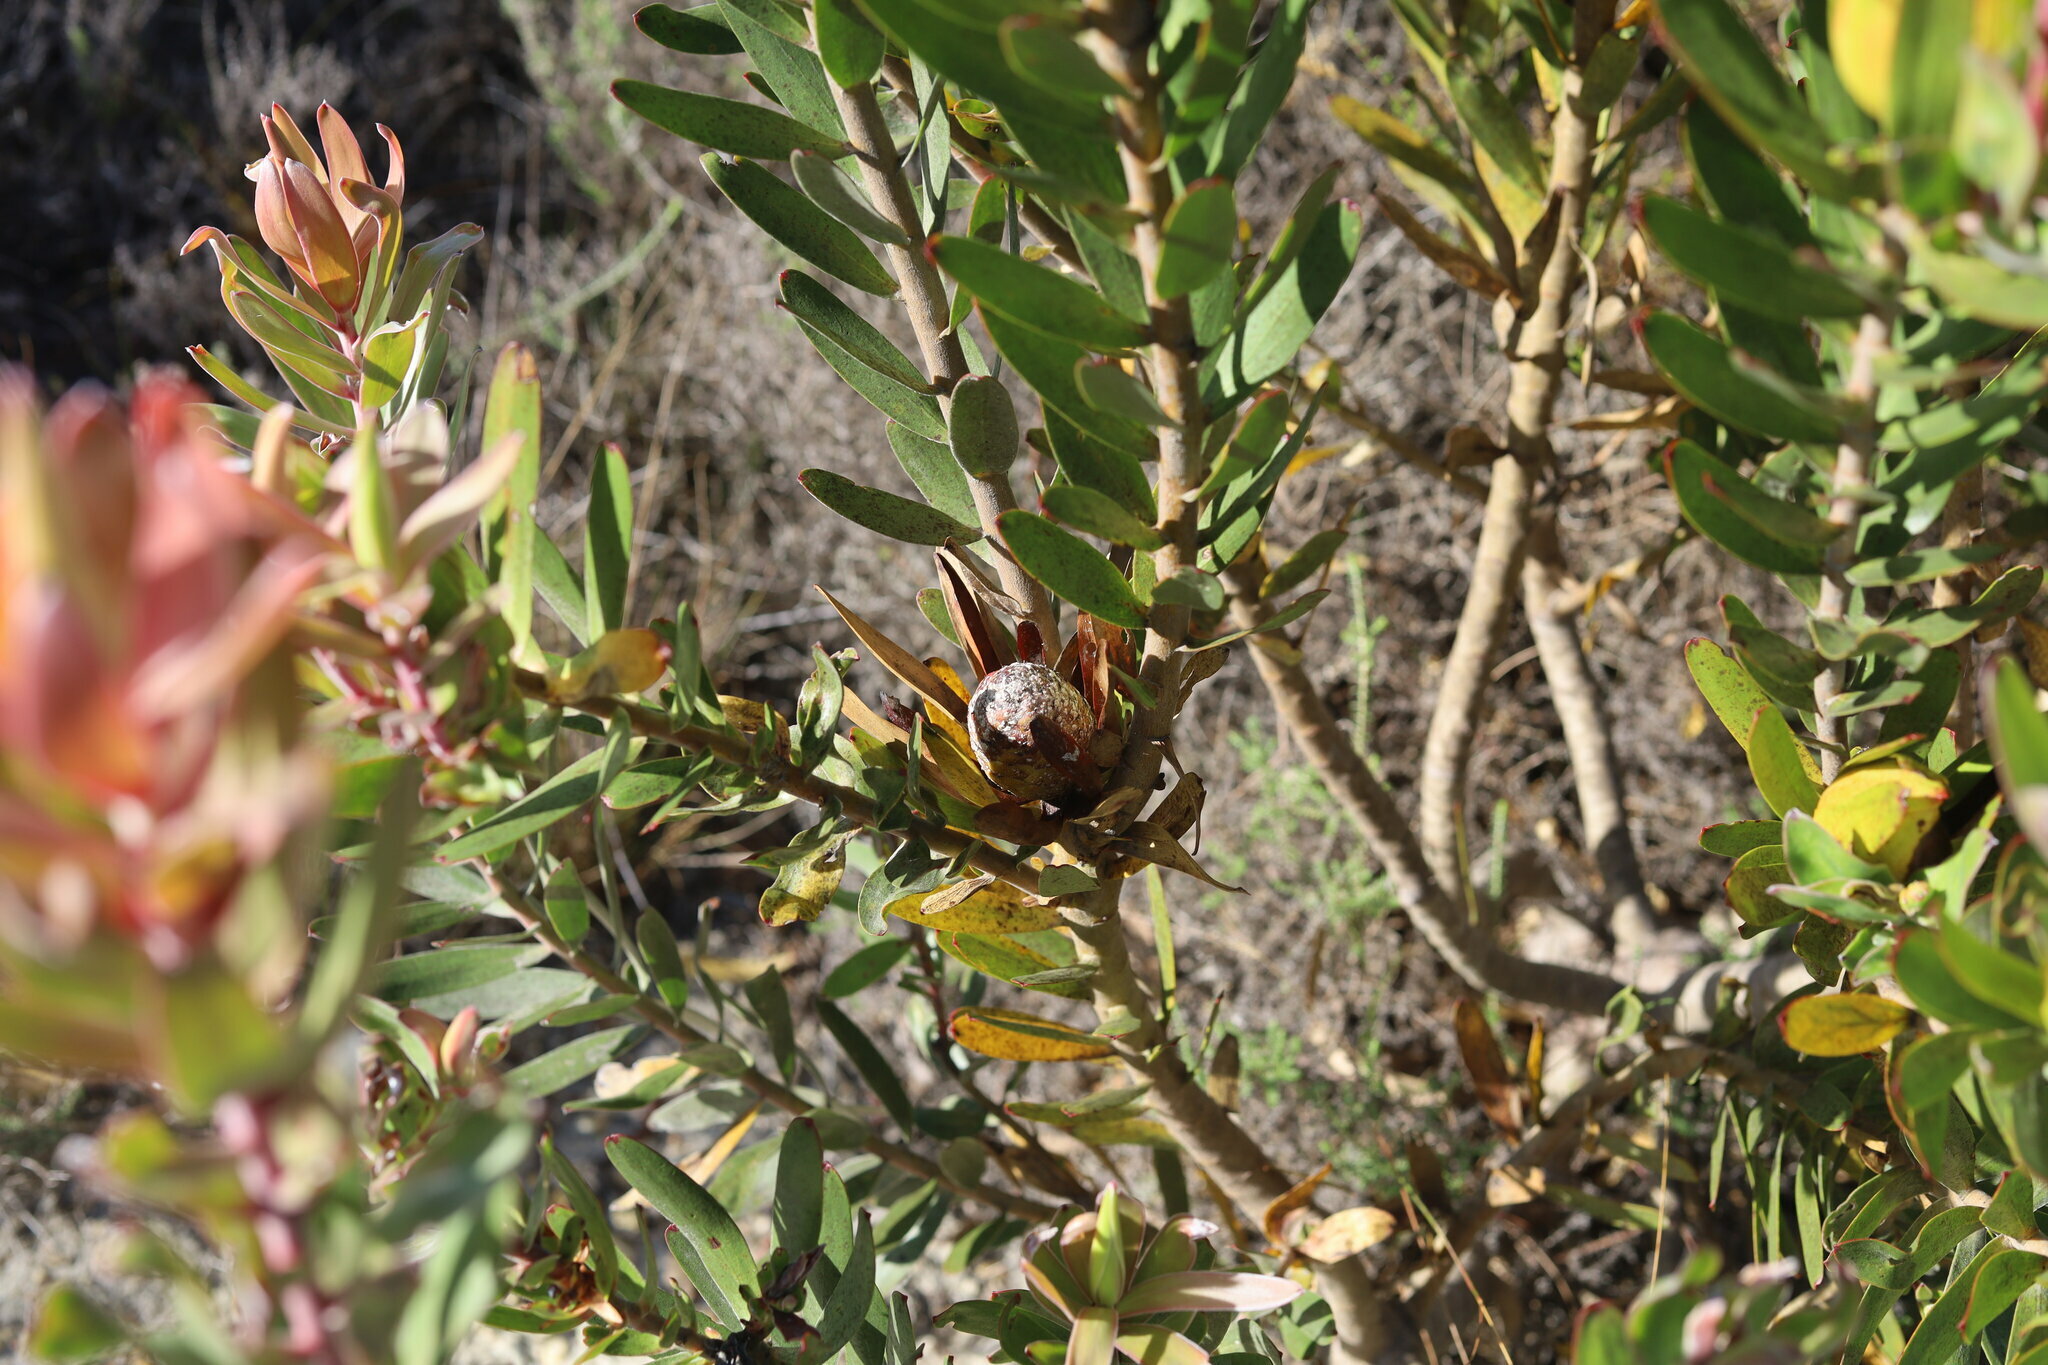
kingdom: Plantae
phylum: Tracheophyta
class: Magnoliopsida
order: Proteales
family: Proteaceae
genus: Leucadendron
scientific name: Leucadendron laureolum
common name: Golden sunshinebush
